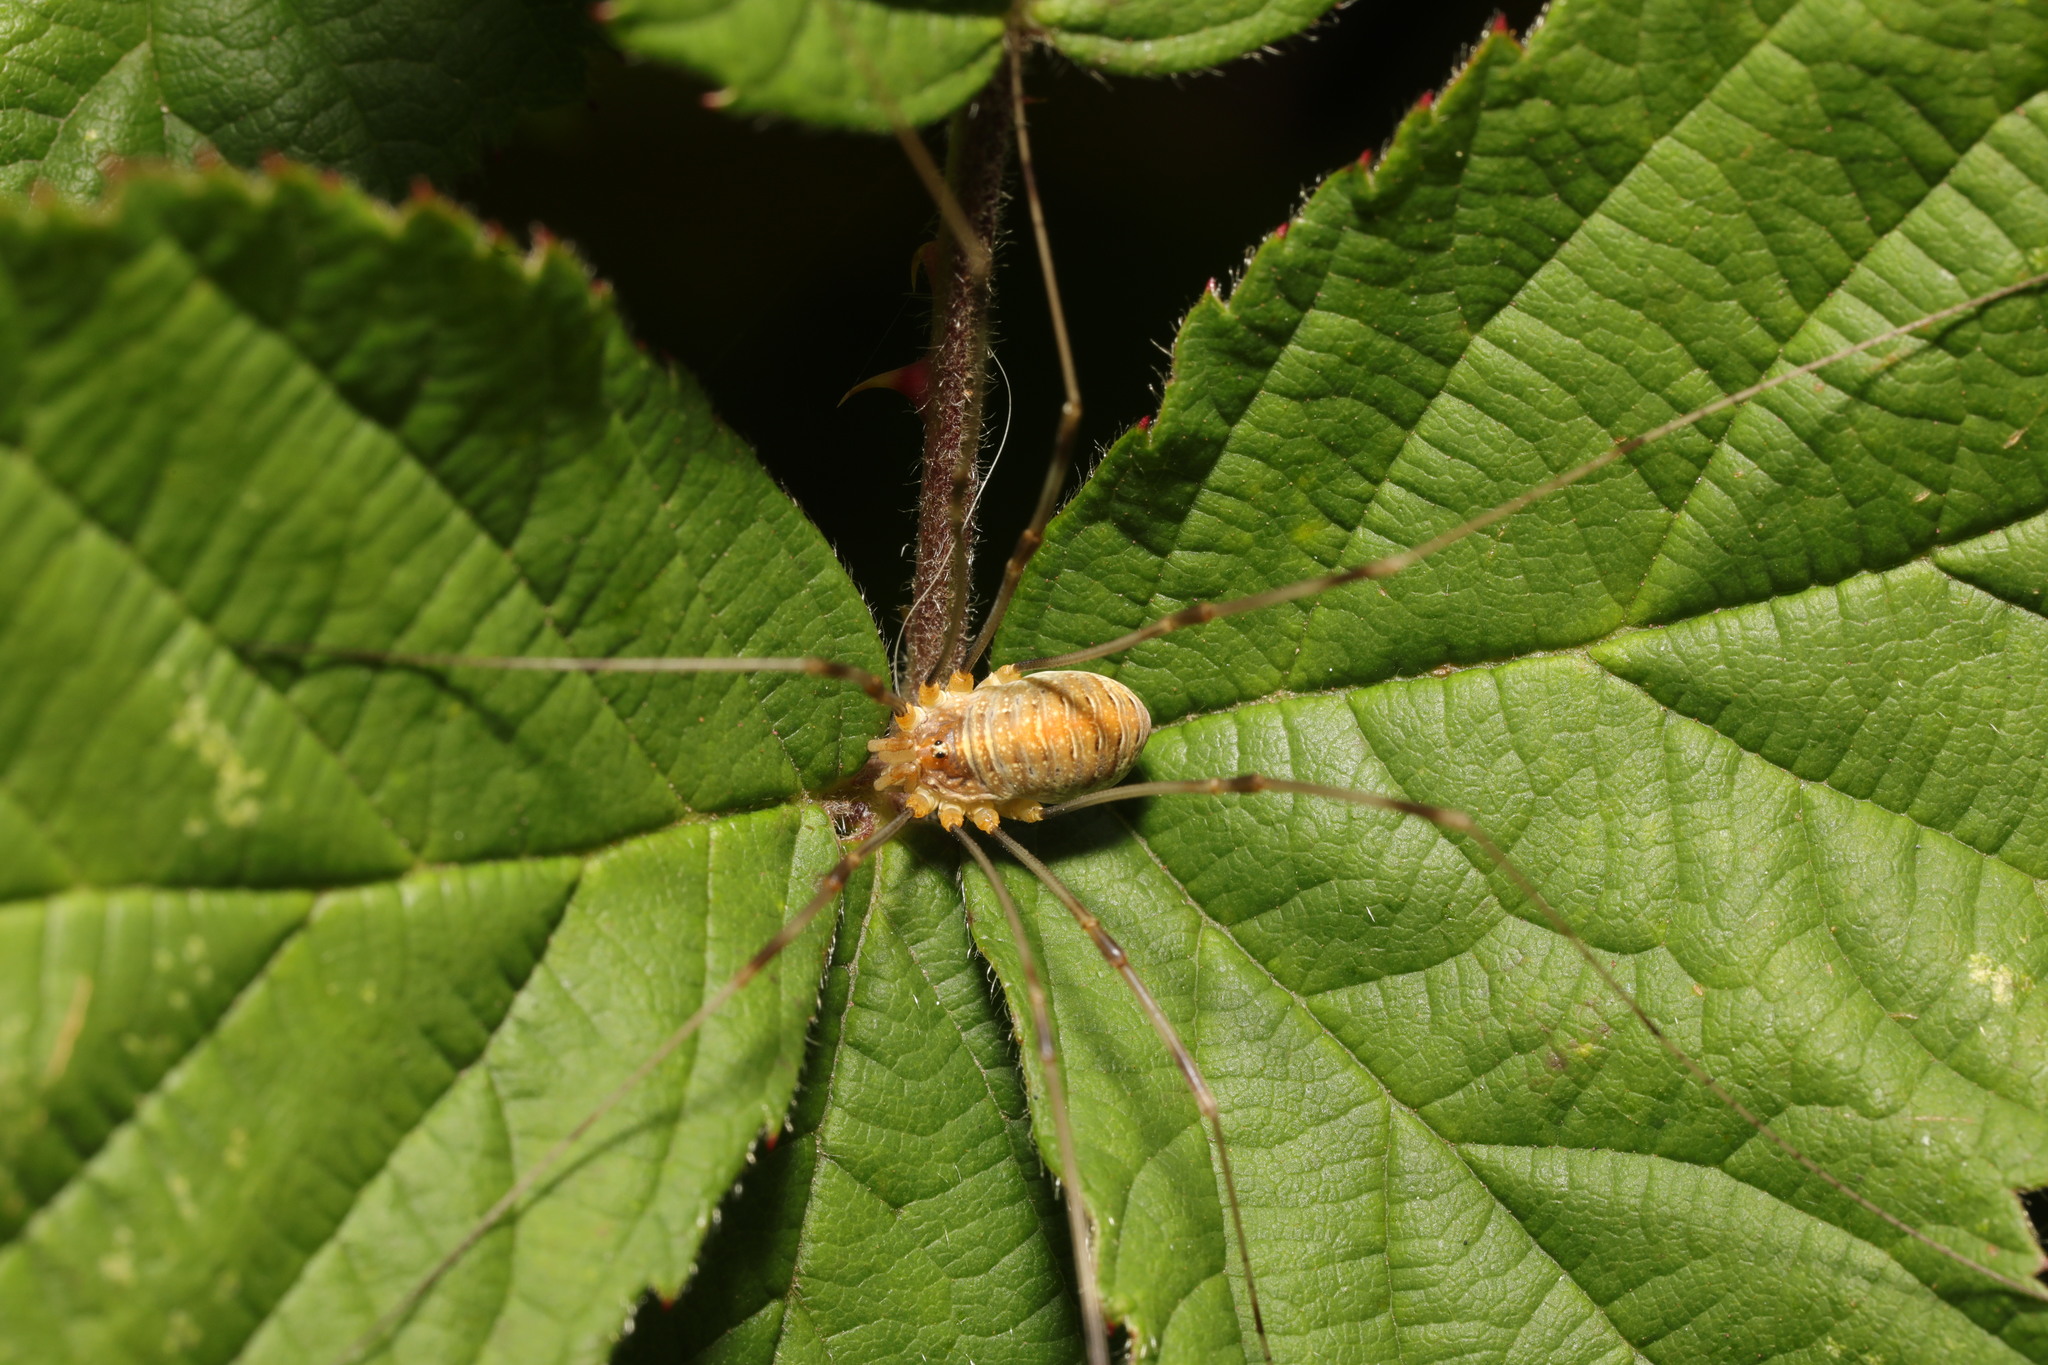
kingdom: Animalia
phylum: Arthropoda
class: Arachnida
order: Opiliones
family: Phalangiidae
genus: Opilio
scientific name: Opilio canestrinii
